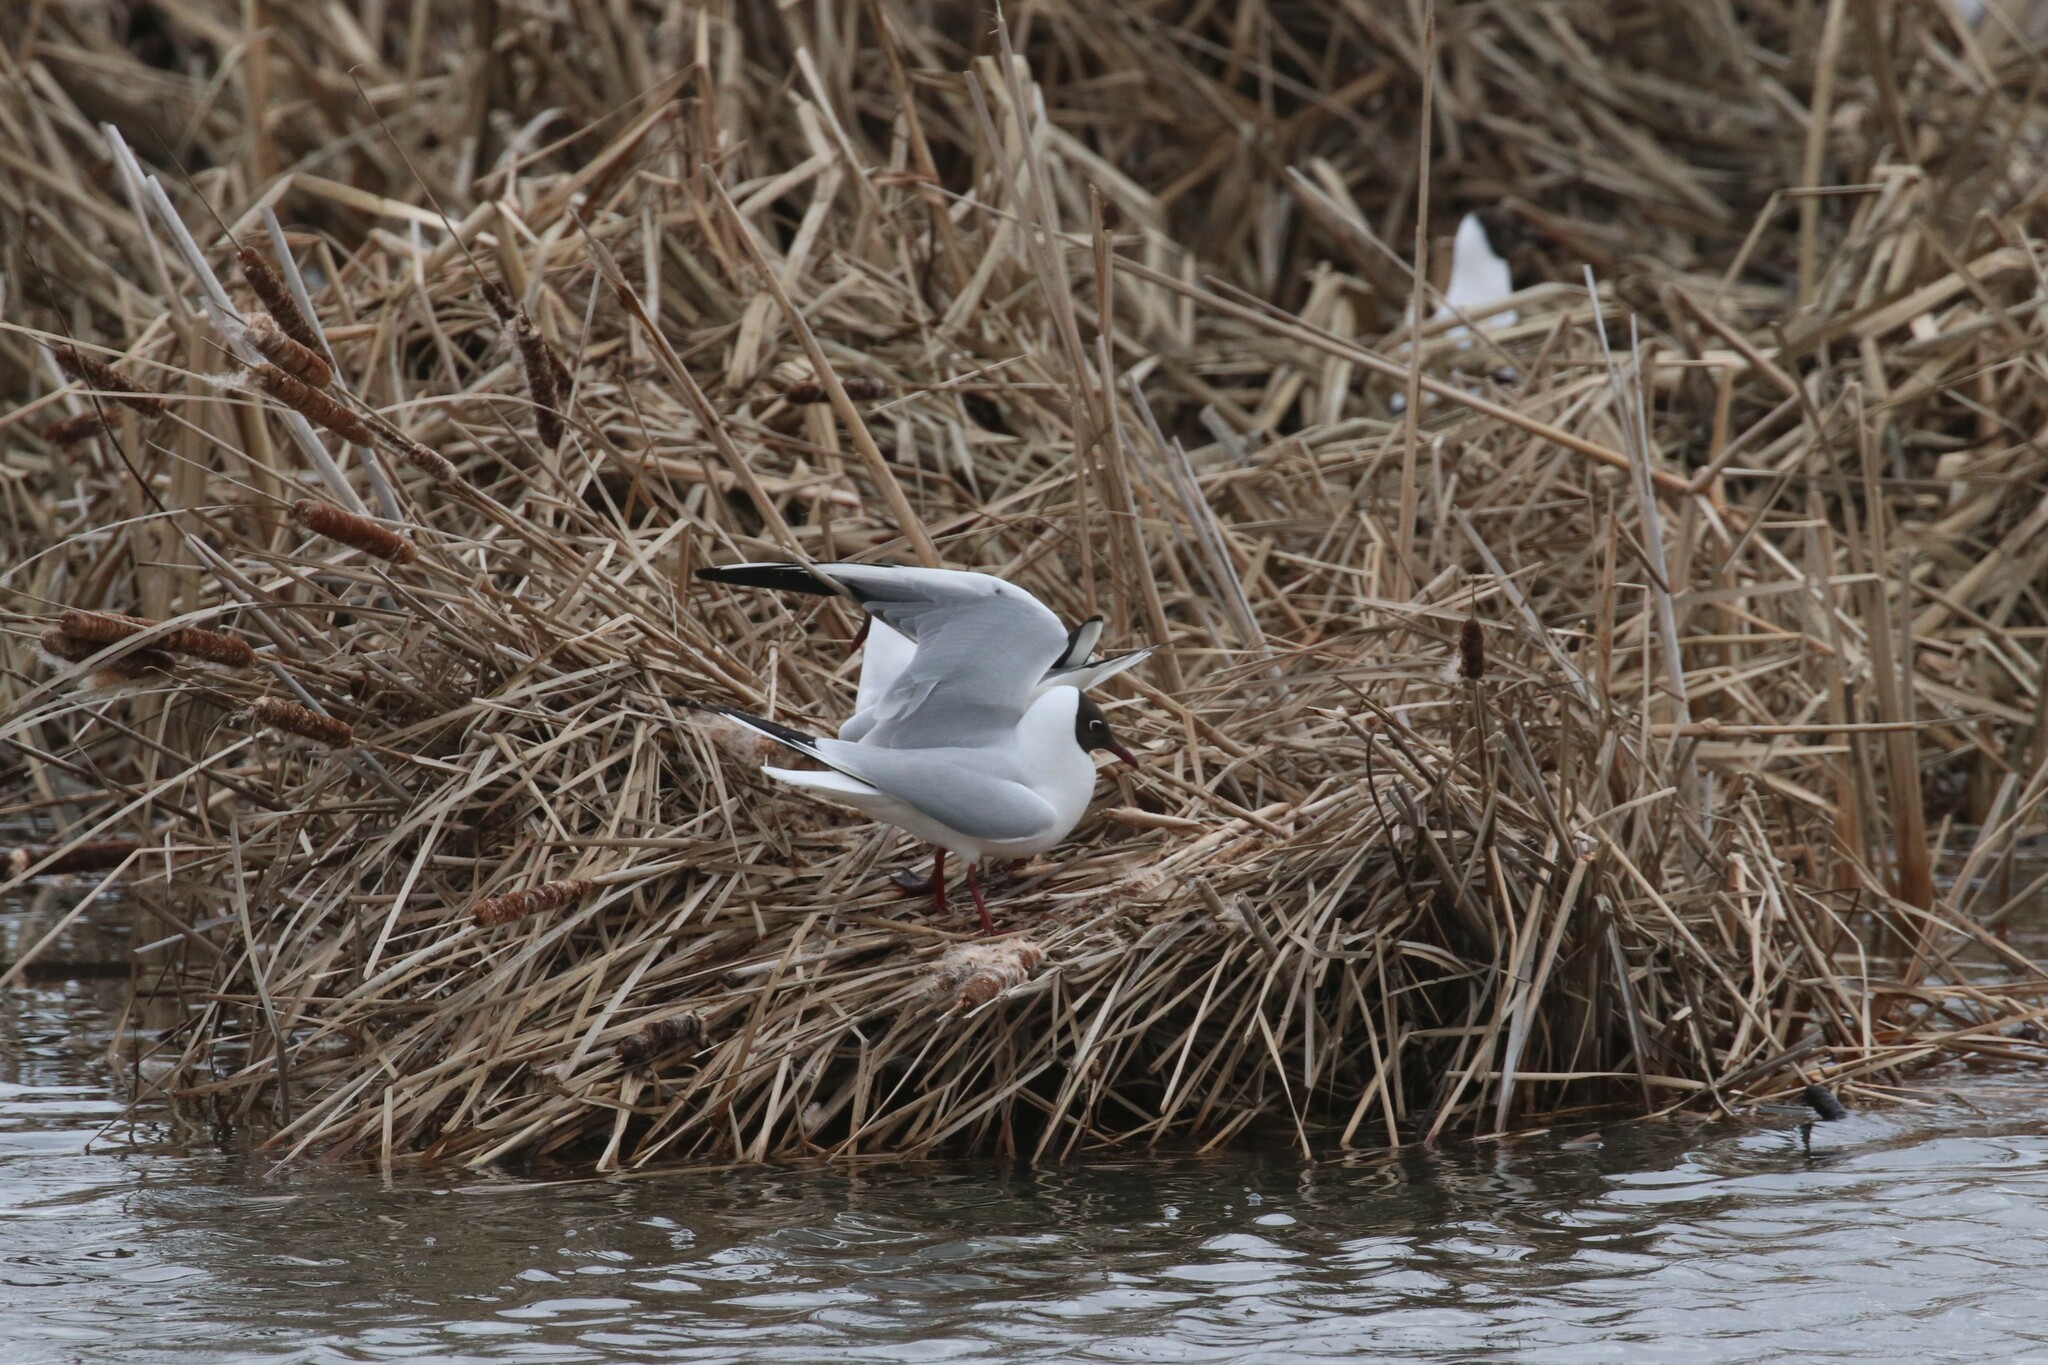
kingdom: Animalia
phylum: Chordata
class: Aves
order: Charadriiformes
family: Laridae
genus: Chroicocephalus
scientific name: Chroicocephalus ridibundus
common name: Black-headed gull
